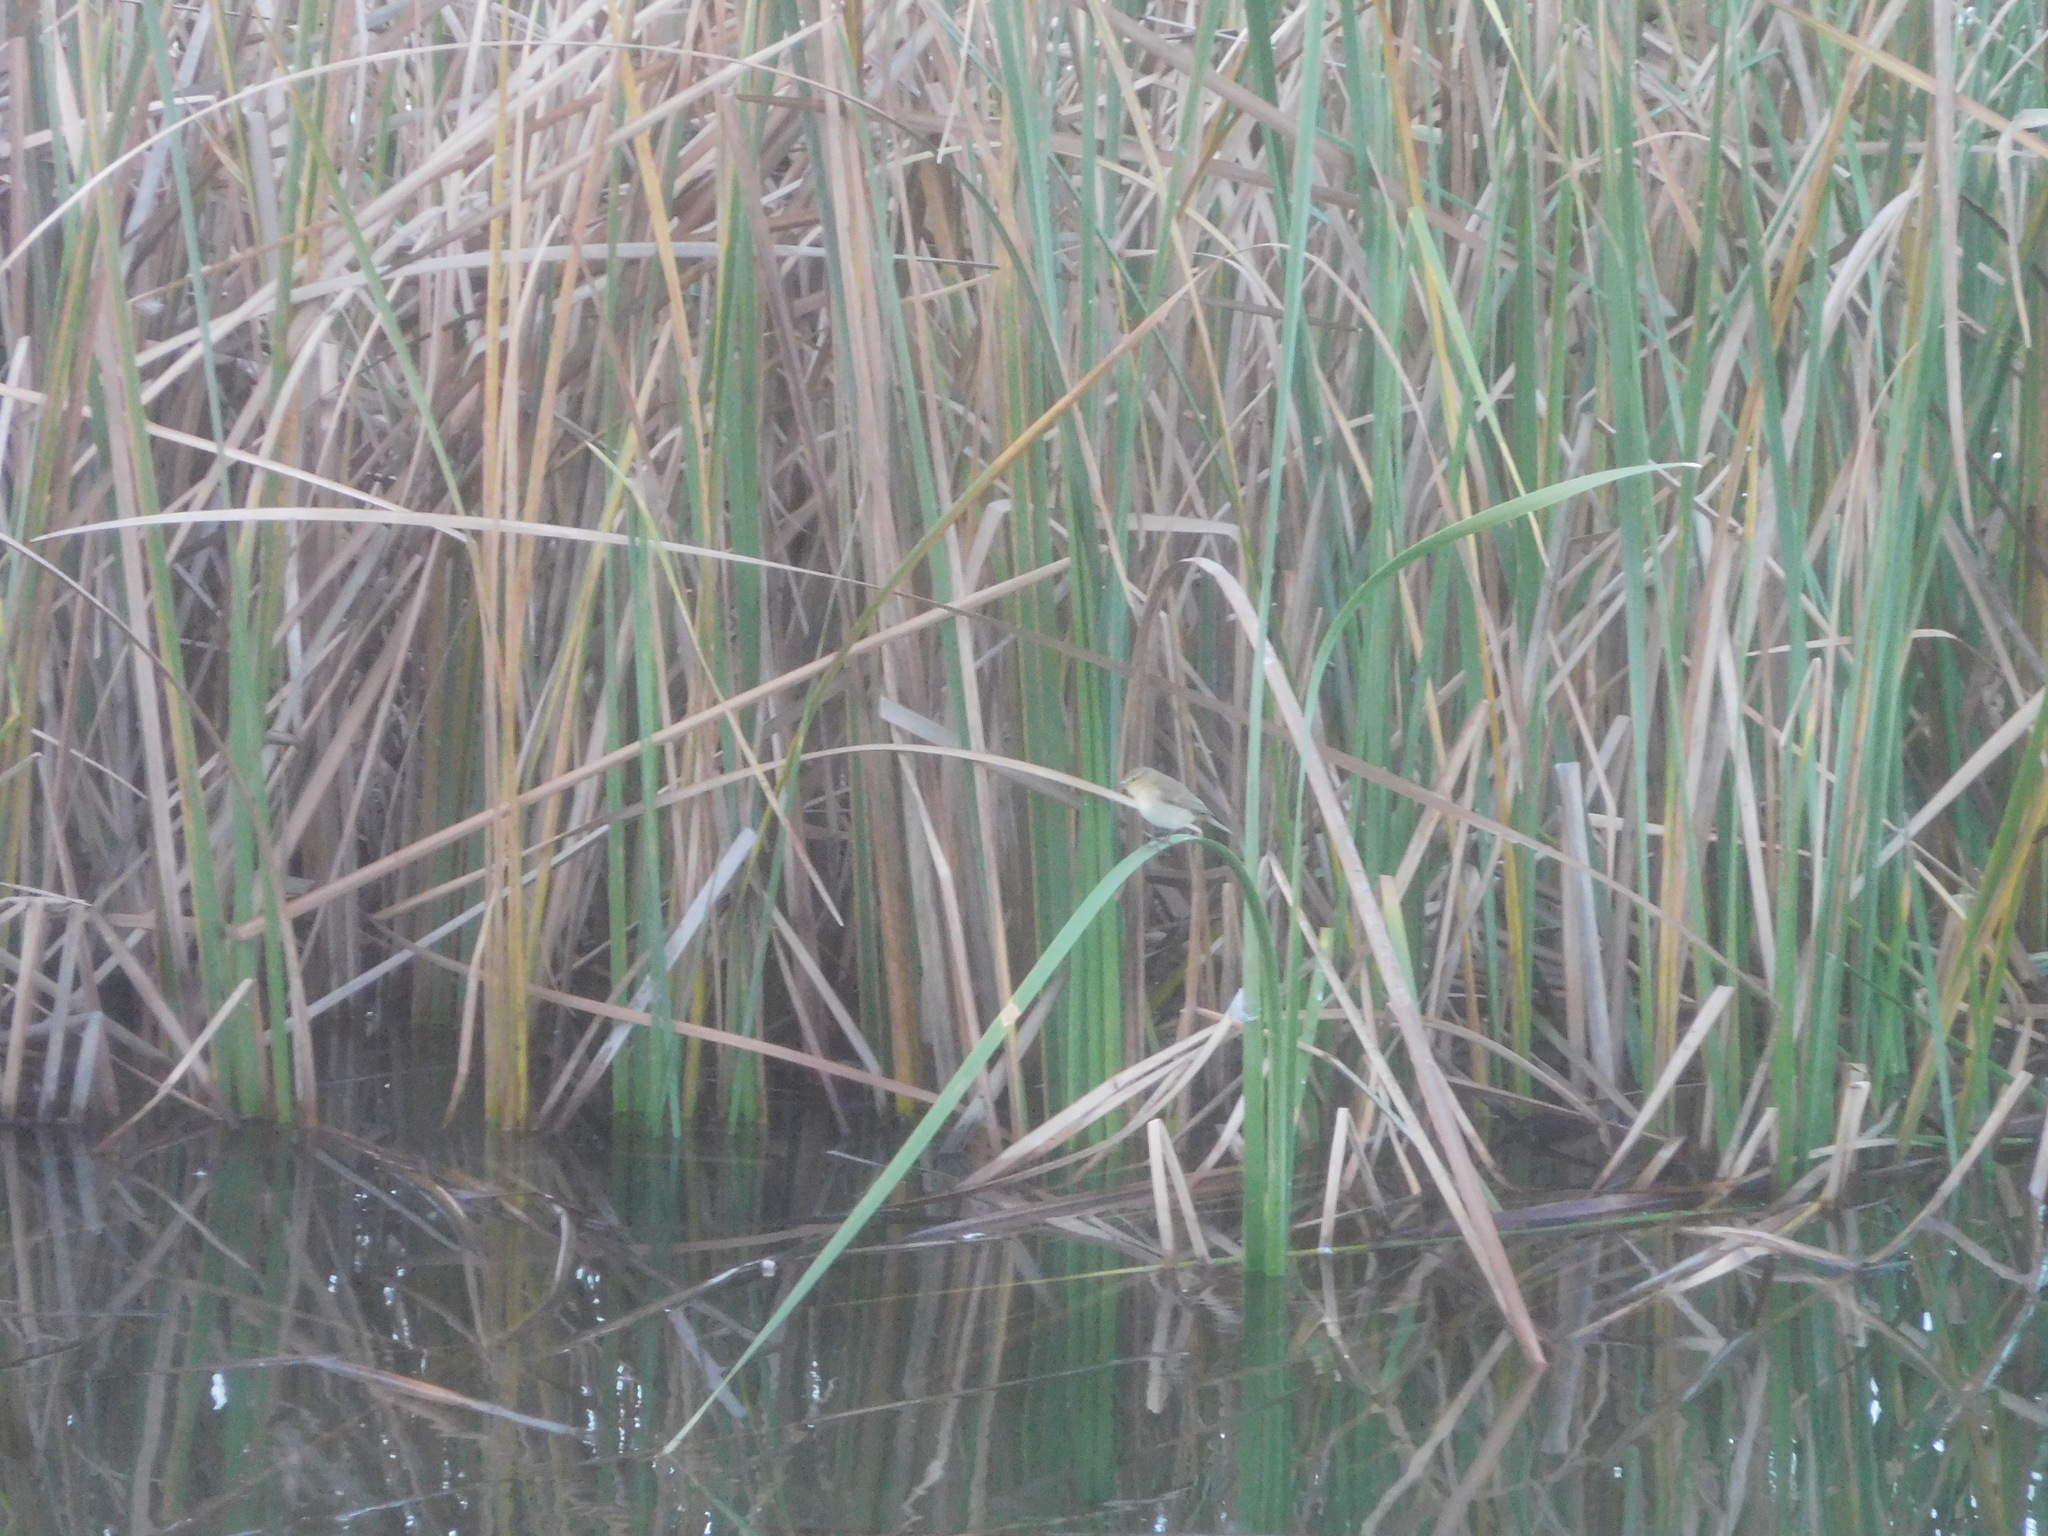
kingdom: Animalia
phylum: Chordata
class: Aves
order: Passeriformes
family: Phylloscopidae
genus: Phylloscopus
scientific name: Phylloscopus collybita
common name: Common chiffchaff
